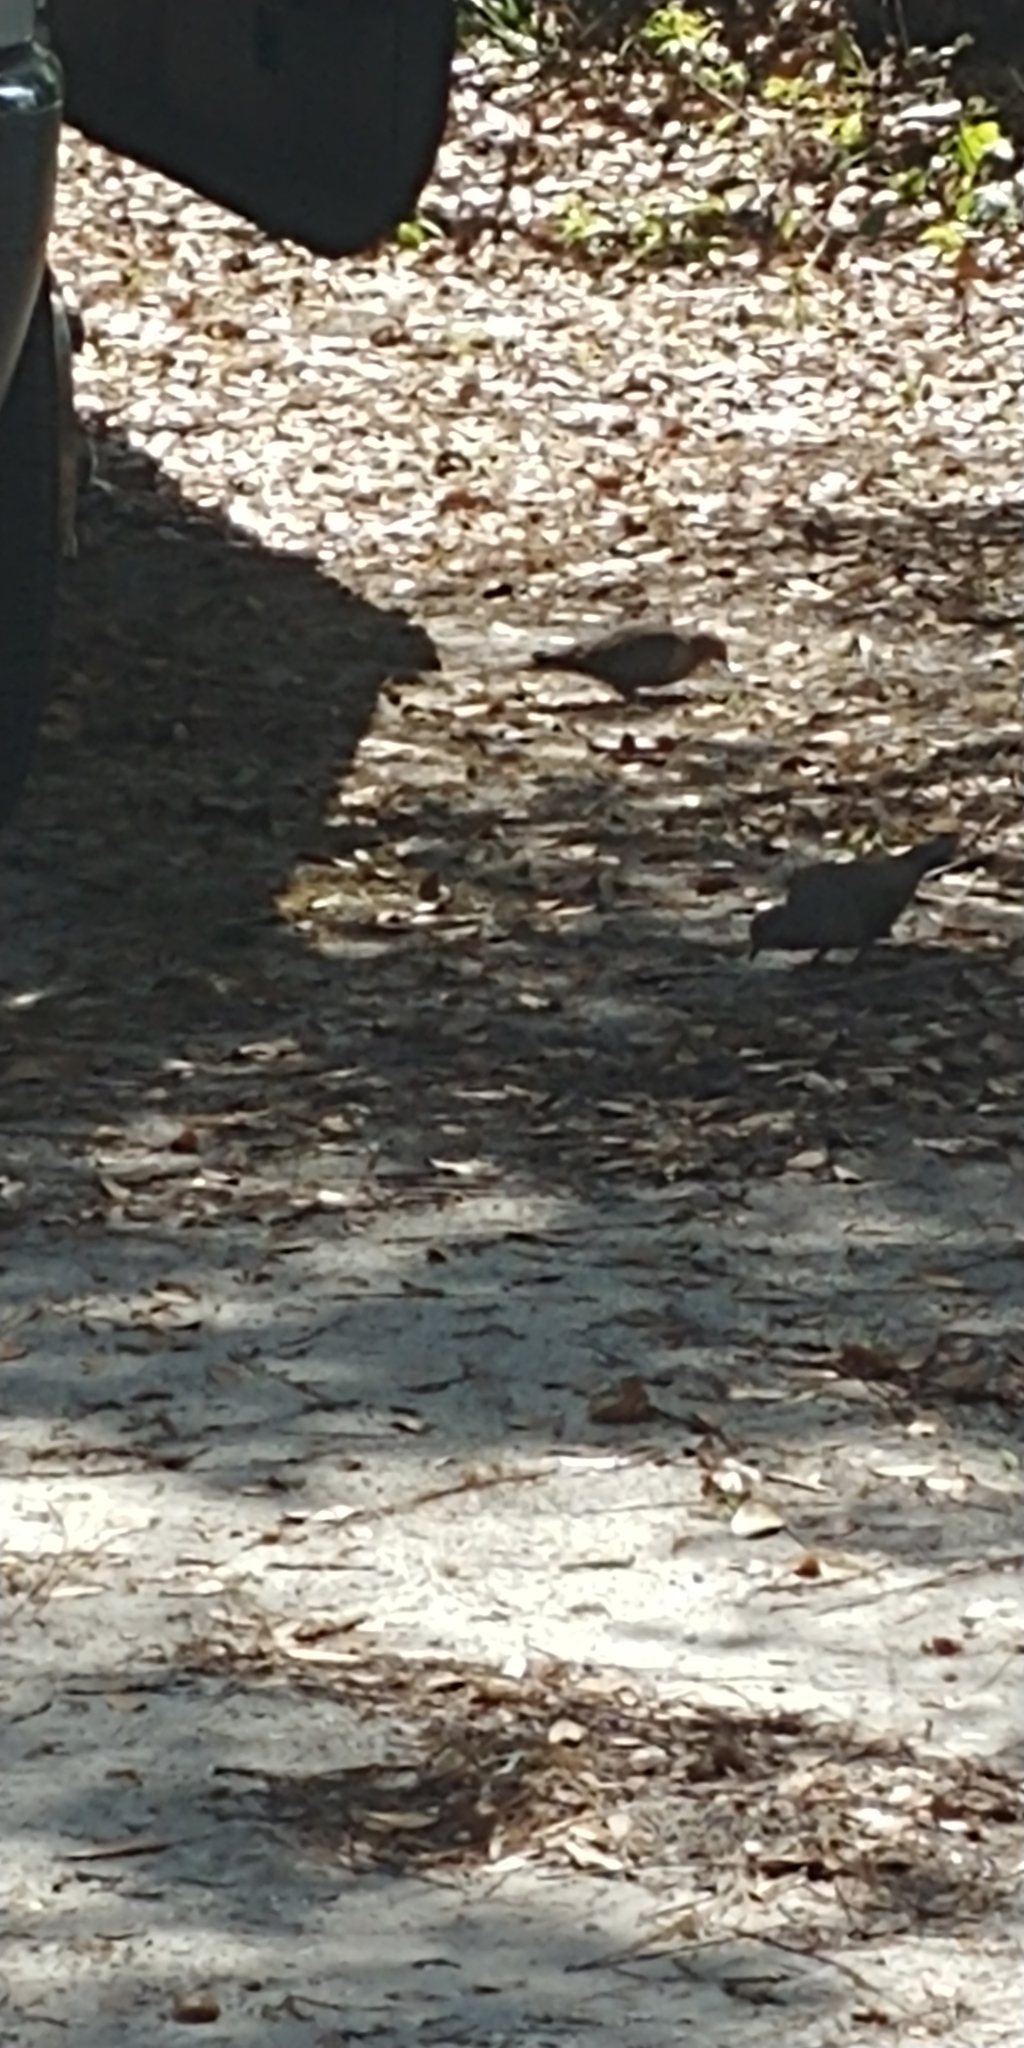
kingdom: Animalia
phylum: Chordata
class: Aves
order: Columbiformes
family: Columbidae
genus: Zenaida
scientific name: Zenaida macroura
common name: Mourning dove
